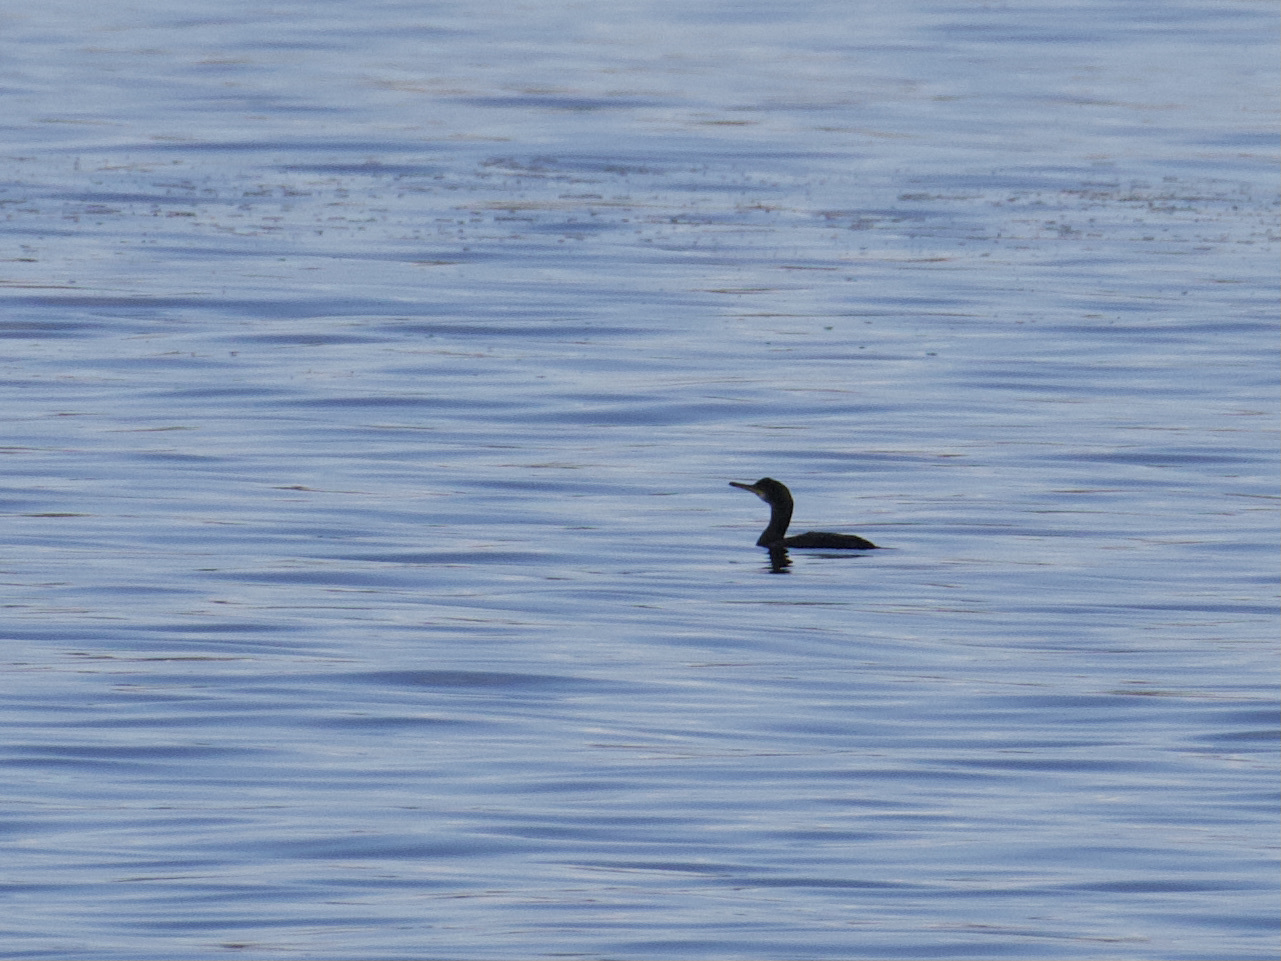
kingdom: Animalia
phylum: Chordata
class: Aves
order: Suliformes
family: Phalacrocoracidae
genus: Phalacrocorax
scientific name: Phalacrocorax aristotelis
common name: European shag
